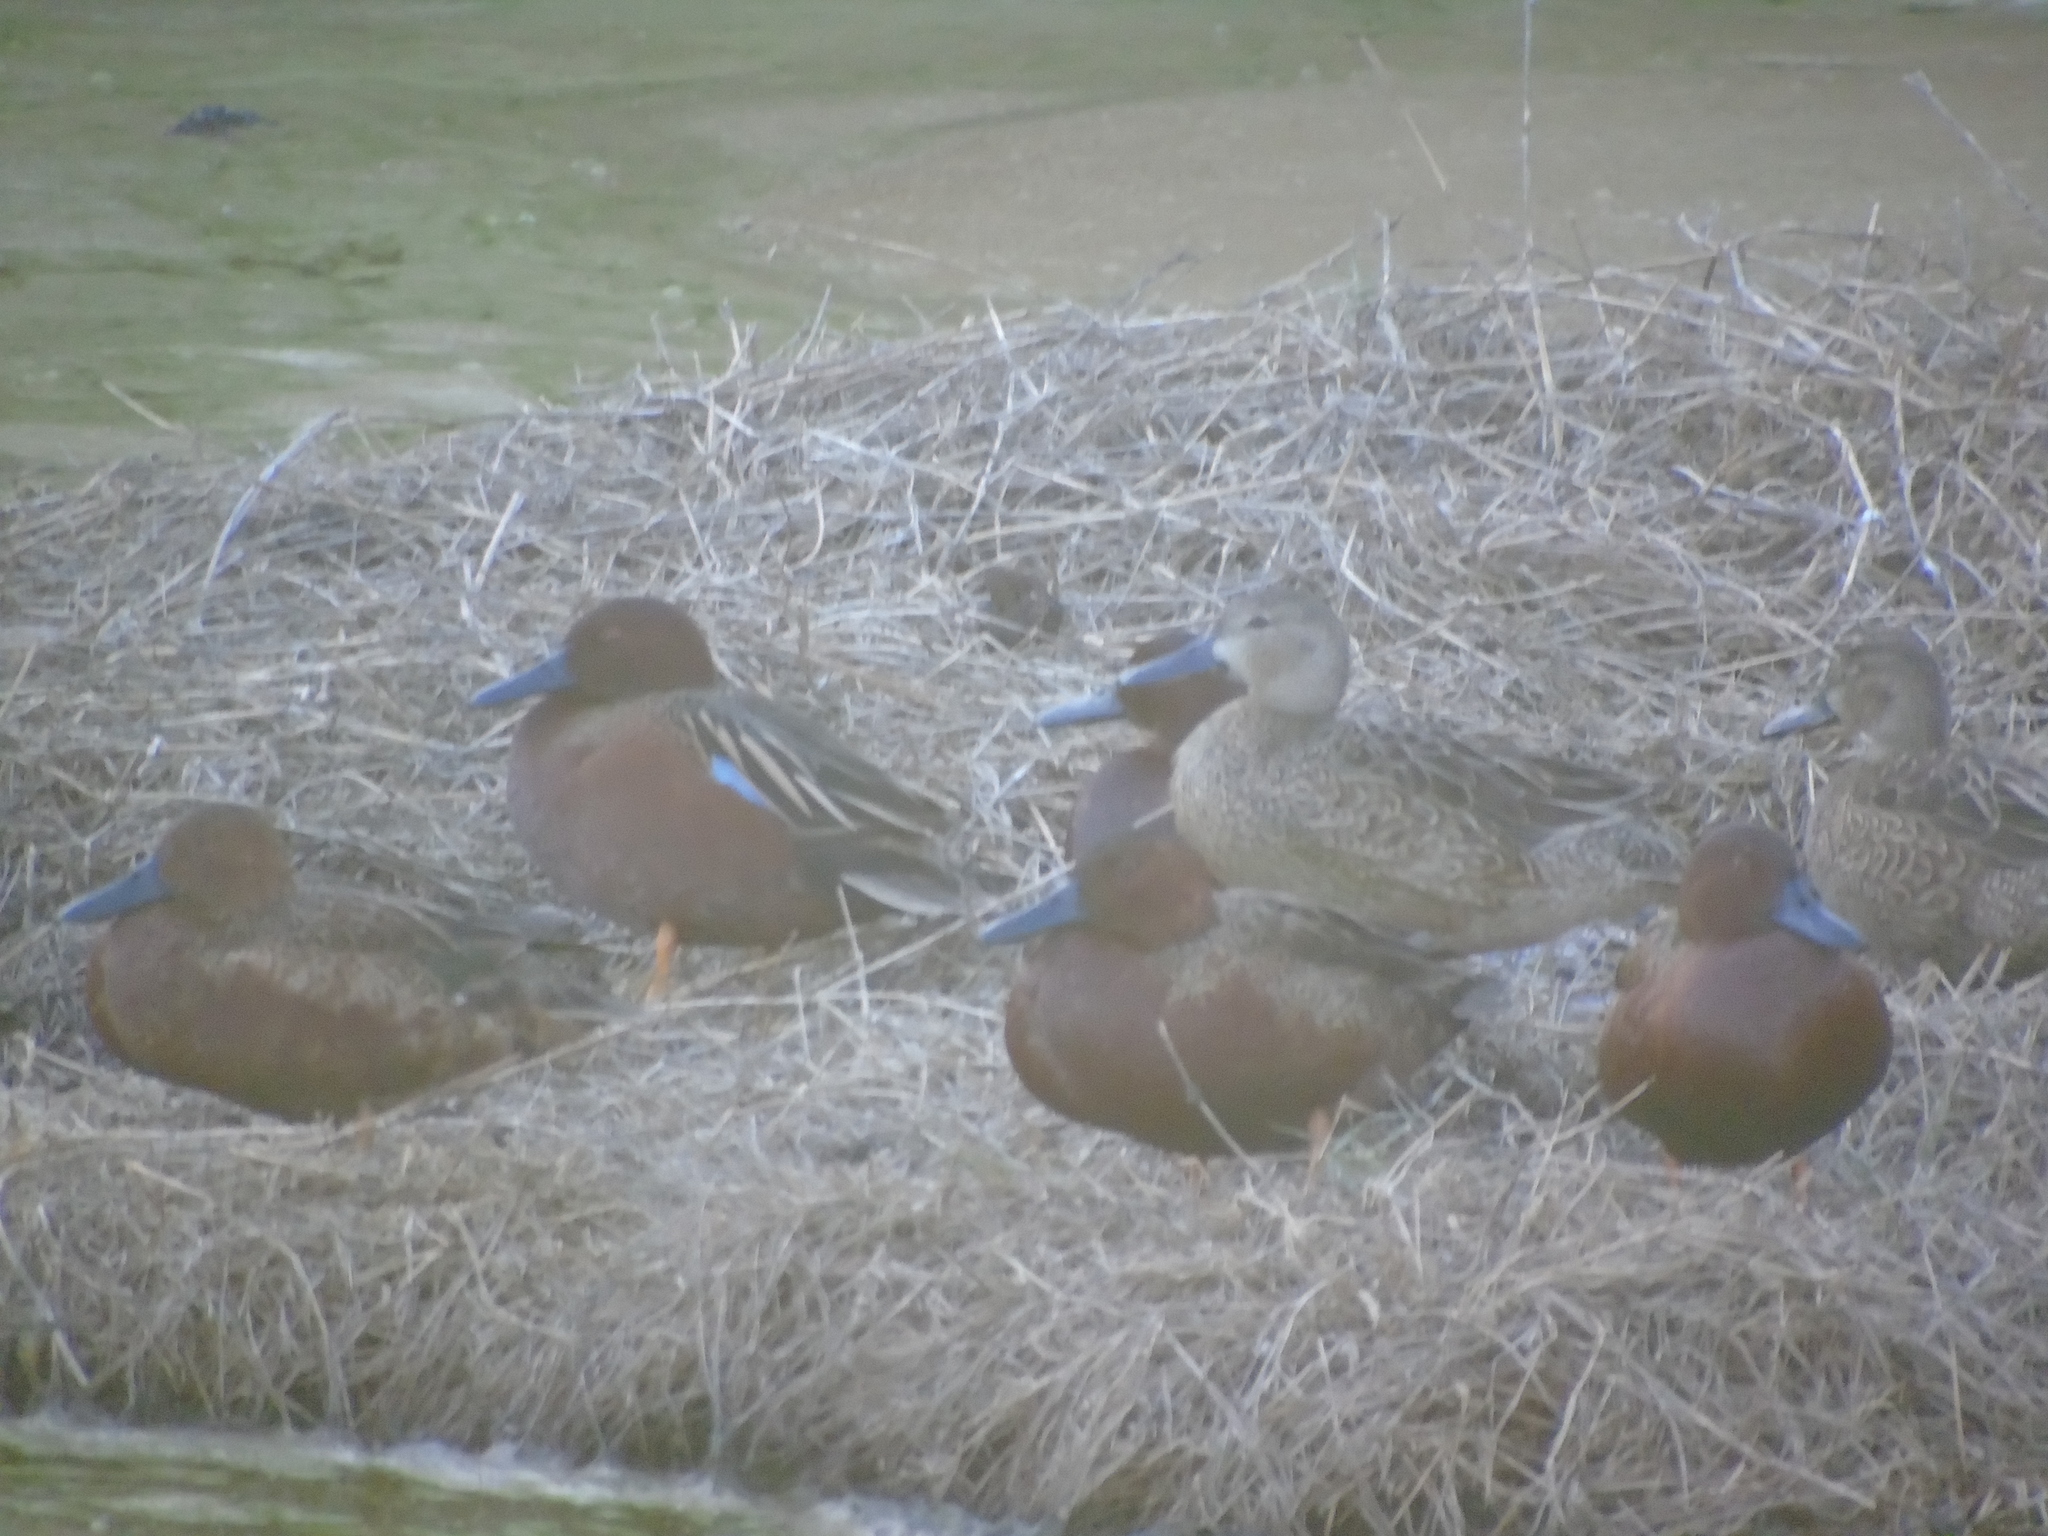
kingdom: Animalia
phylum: Chordata
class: Aves
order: Anseriformes
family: Anatidae
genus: Spatula
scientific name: Spatula cyanoptera
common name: Cinnamon teal
